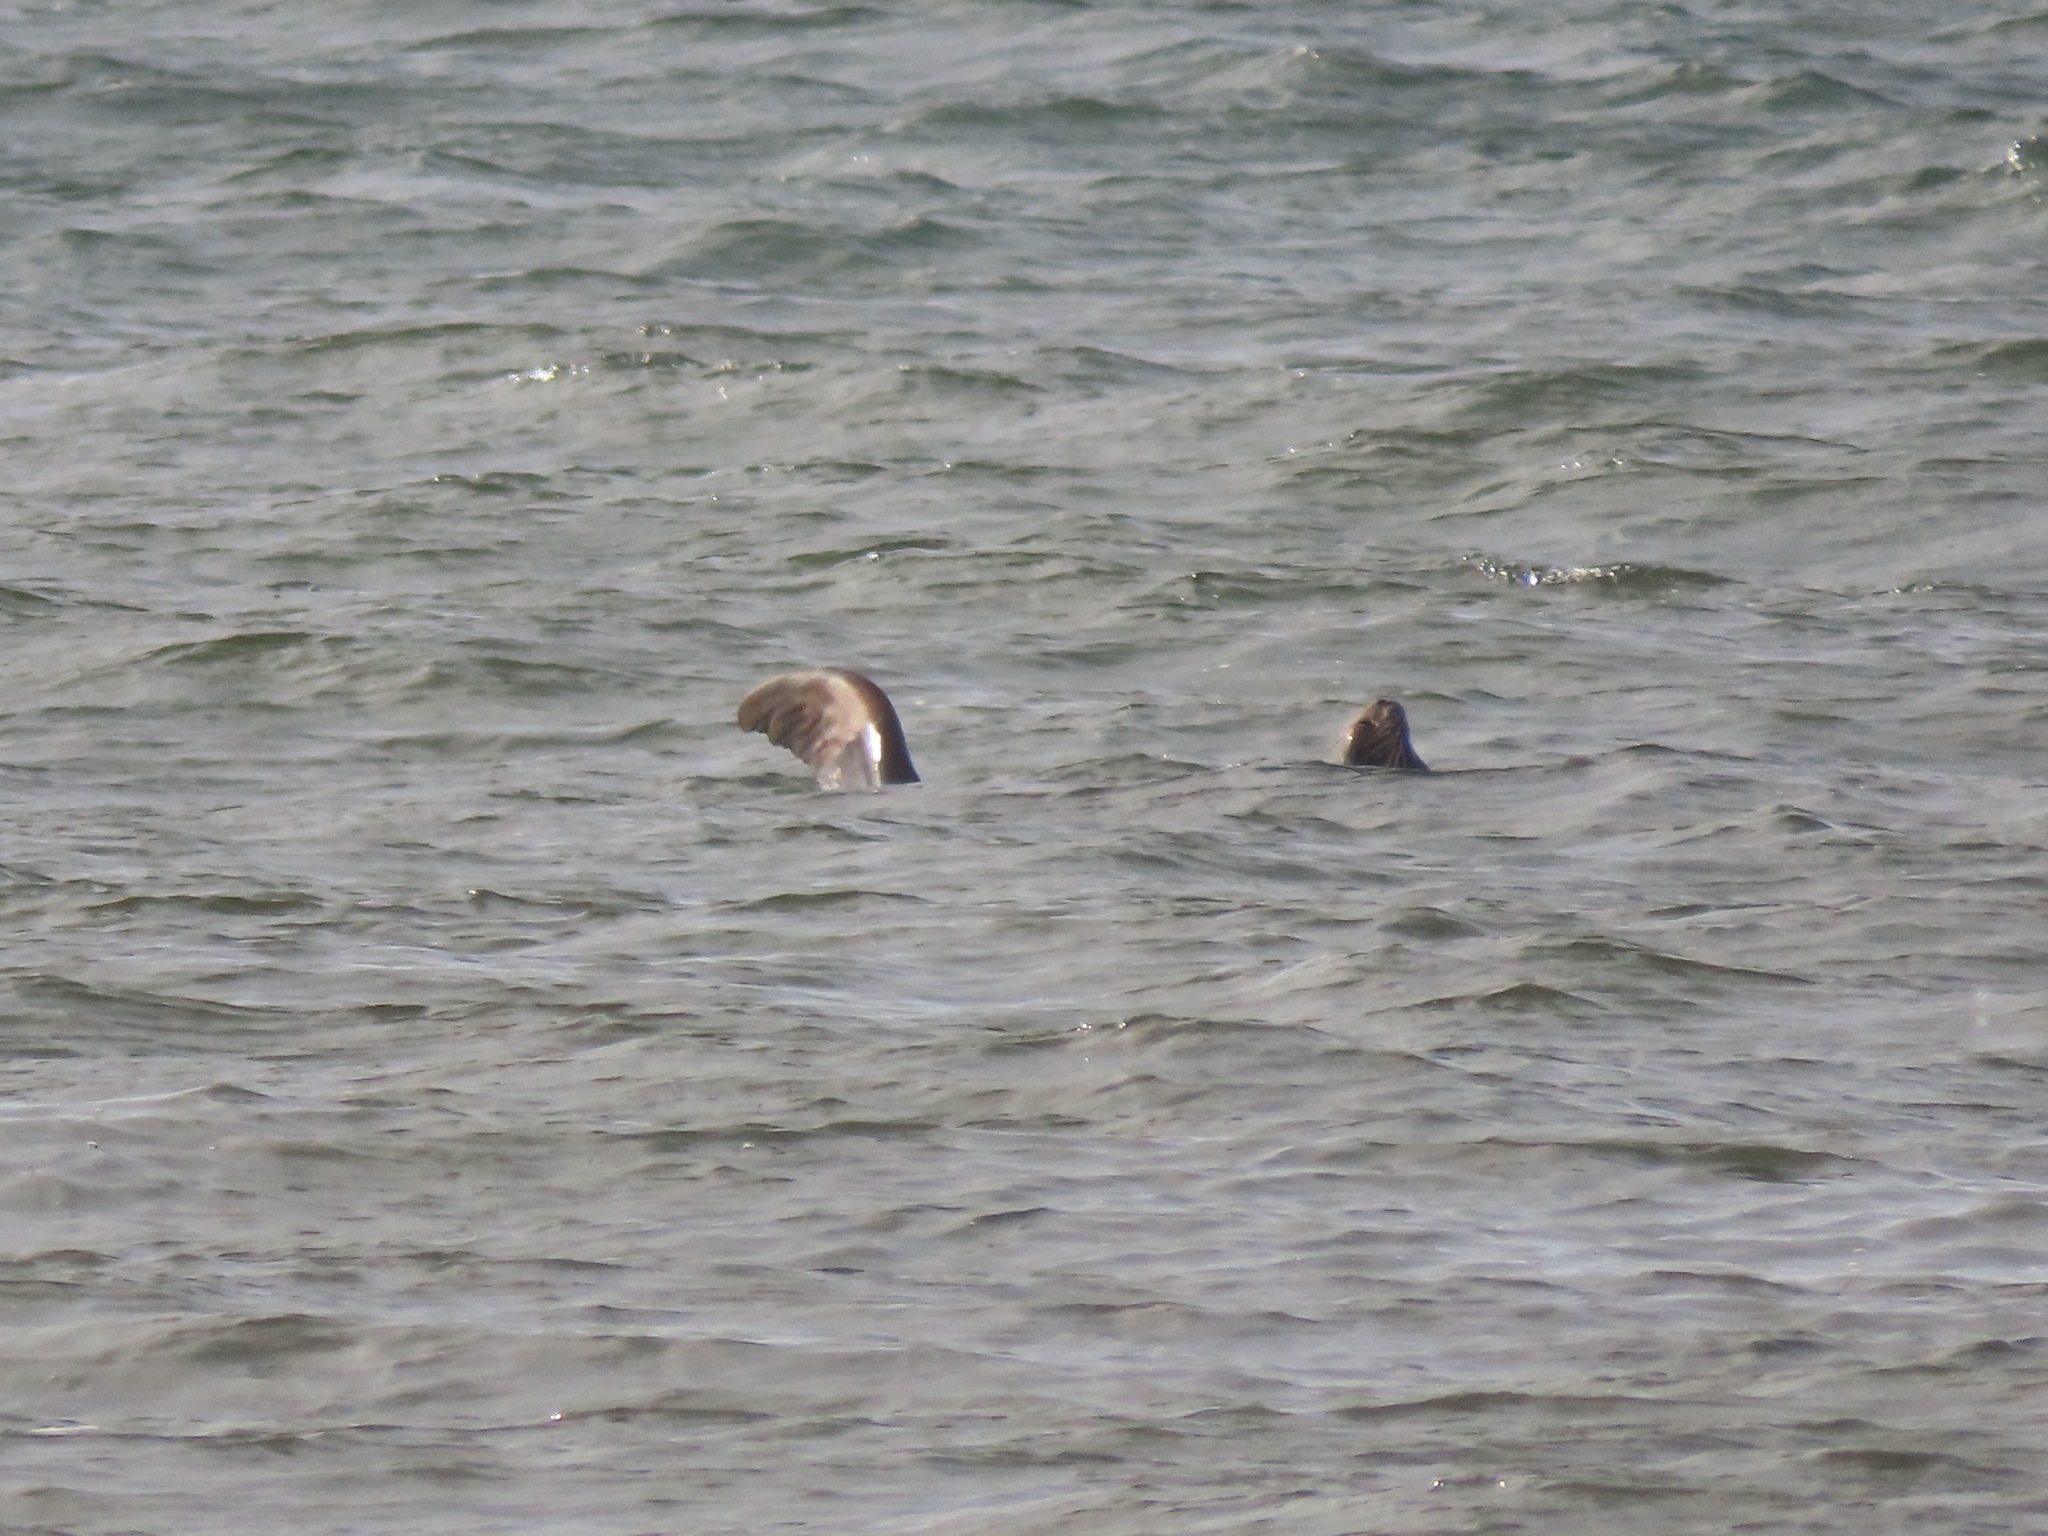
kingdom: Animalia
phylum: Chordata
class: Mammalia
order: Carnivora
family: Otariidae
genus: Zalophus
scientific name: Zalophus californianus
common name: California sea lion
